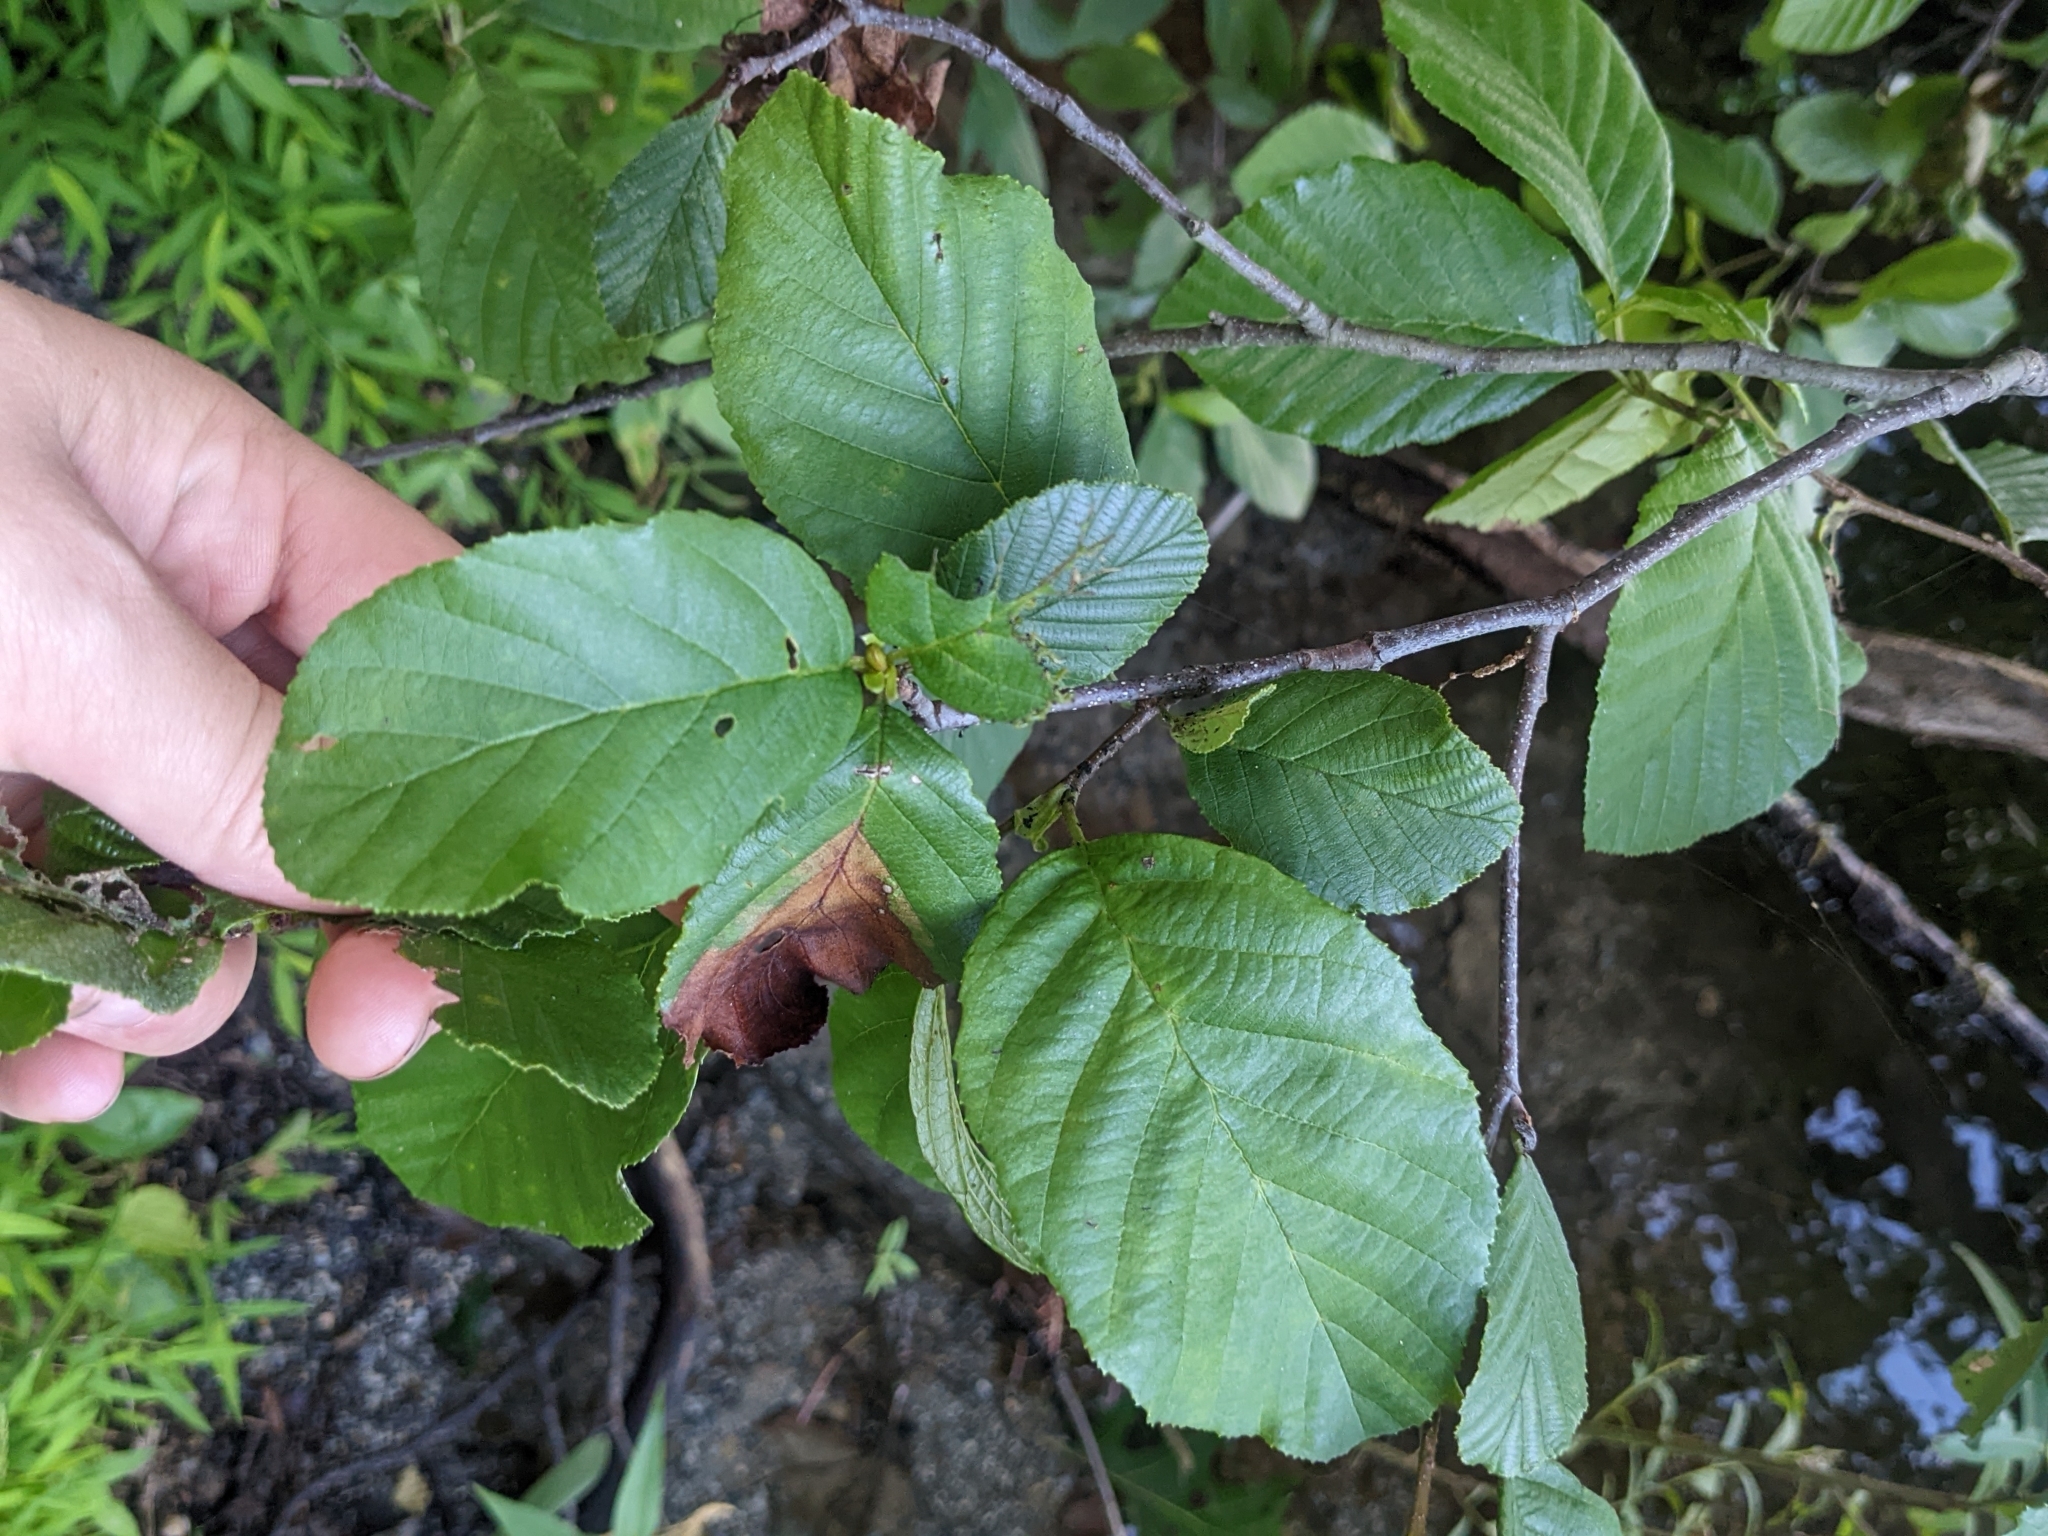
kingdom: Plantae
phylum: Tracheophyta
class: Magnoliopsida
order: Fagales
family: Betulaceae
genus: Alnus
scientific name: Alnus serrulata
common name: Hazel alder
